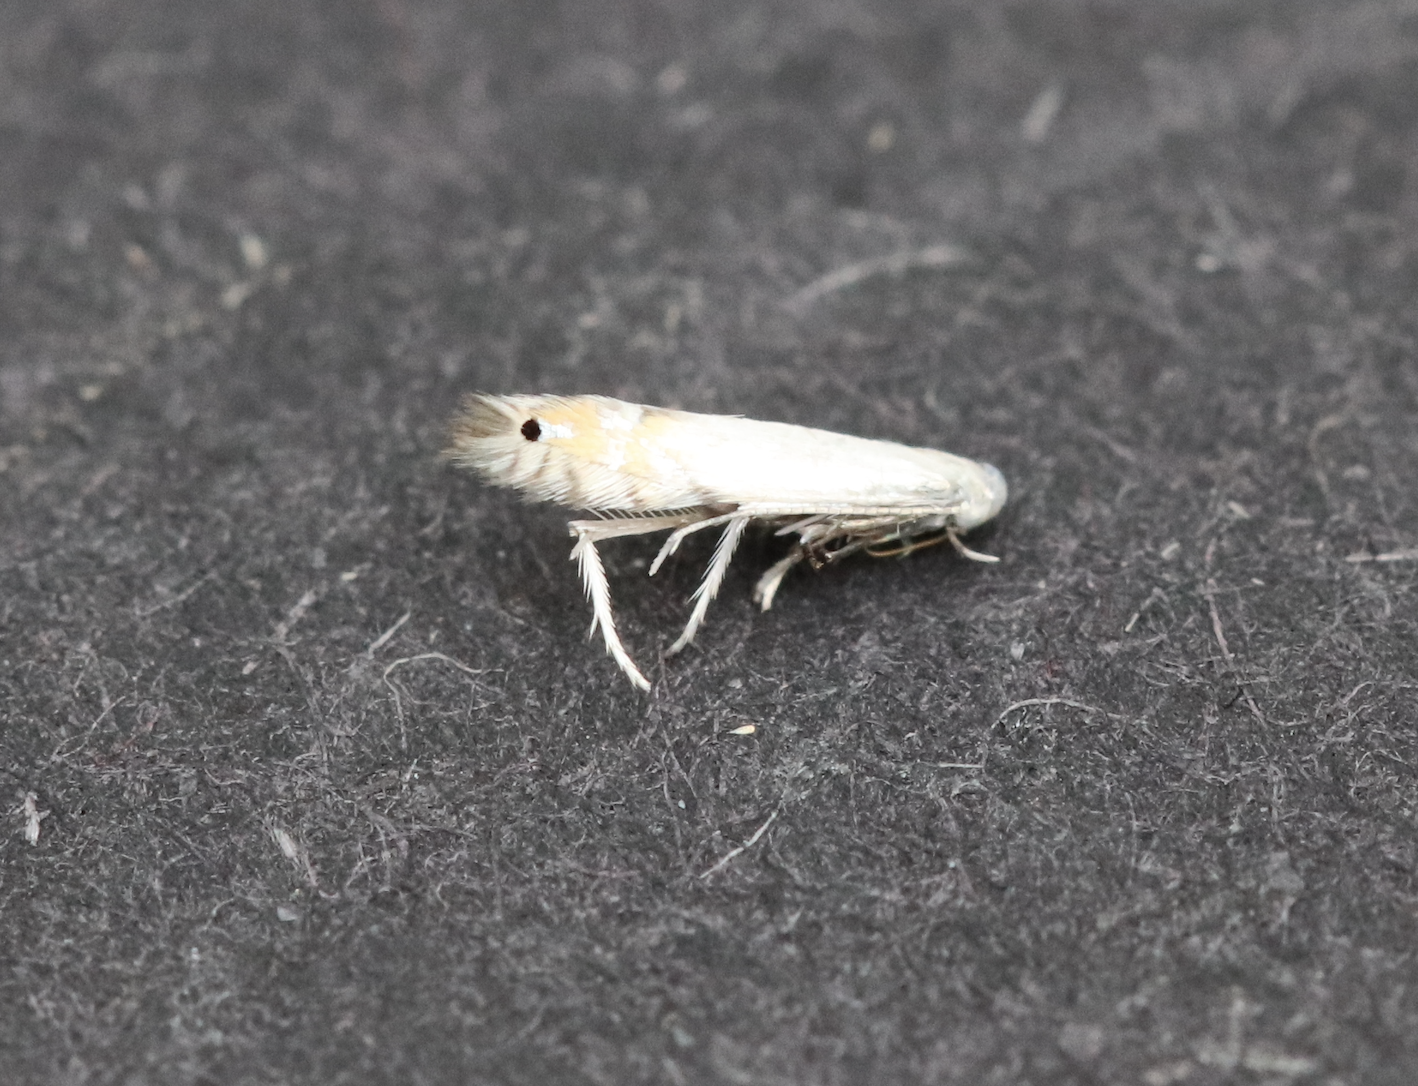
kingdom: Animalia
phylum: Arthropoda
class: Insecta
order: Lepidoptera
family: Gracillariidae
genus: Phyllocnistis
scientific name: Phyllocnistis populiella
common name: Aspen serpentine leafminer moth
